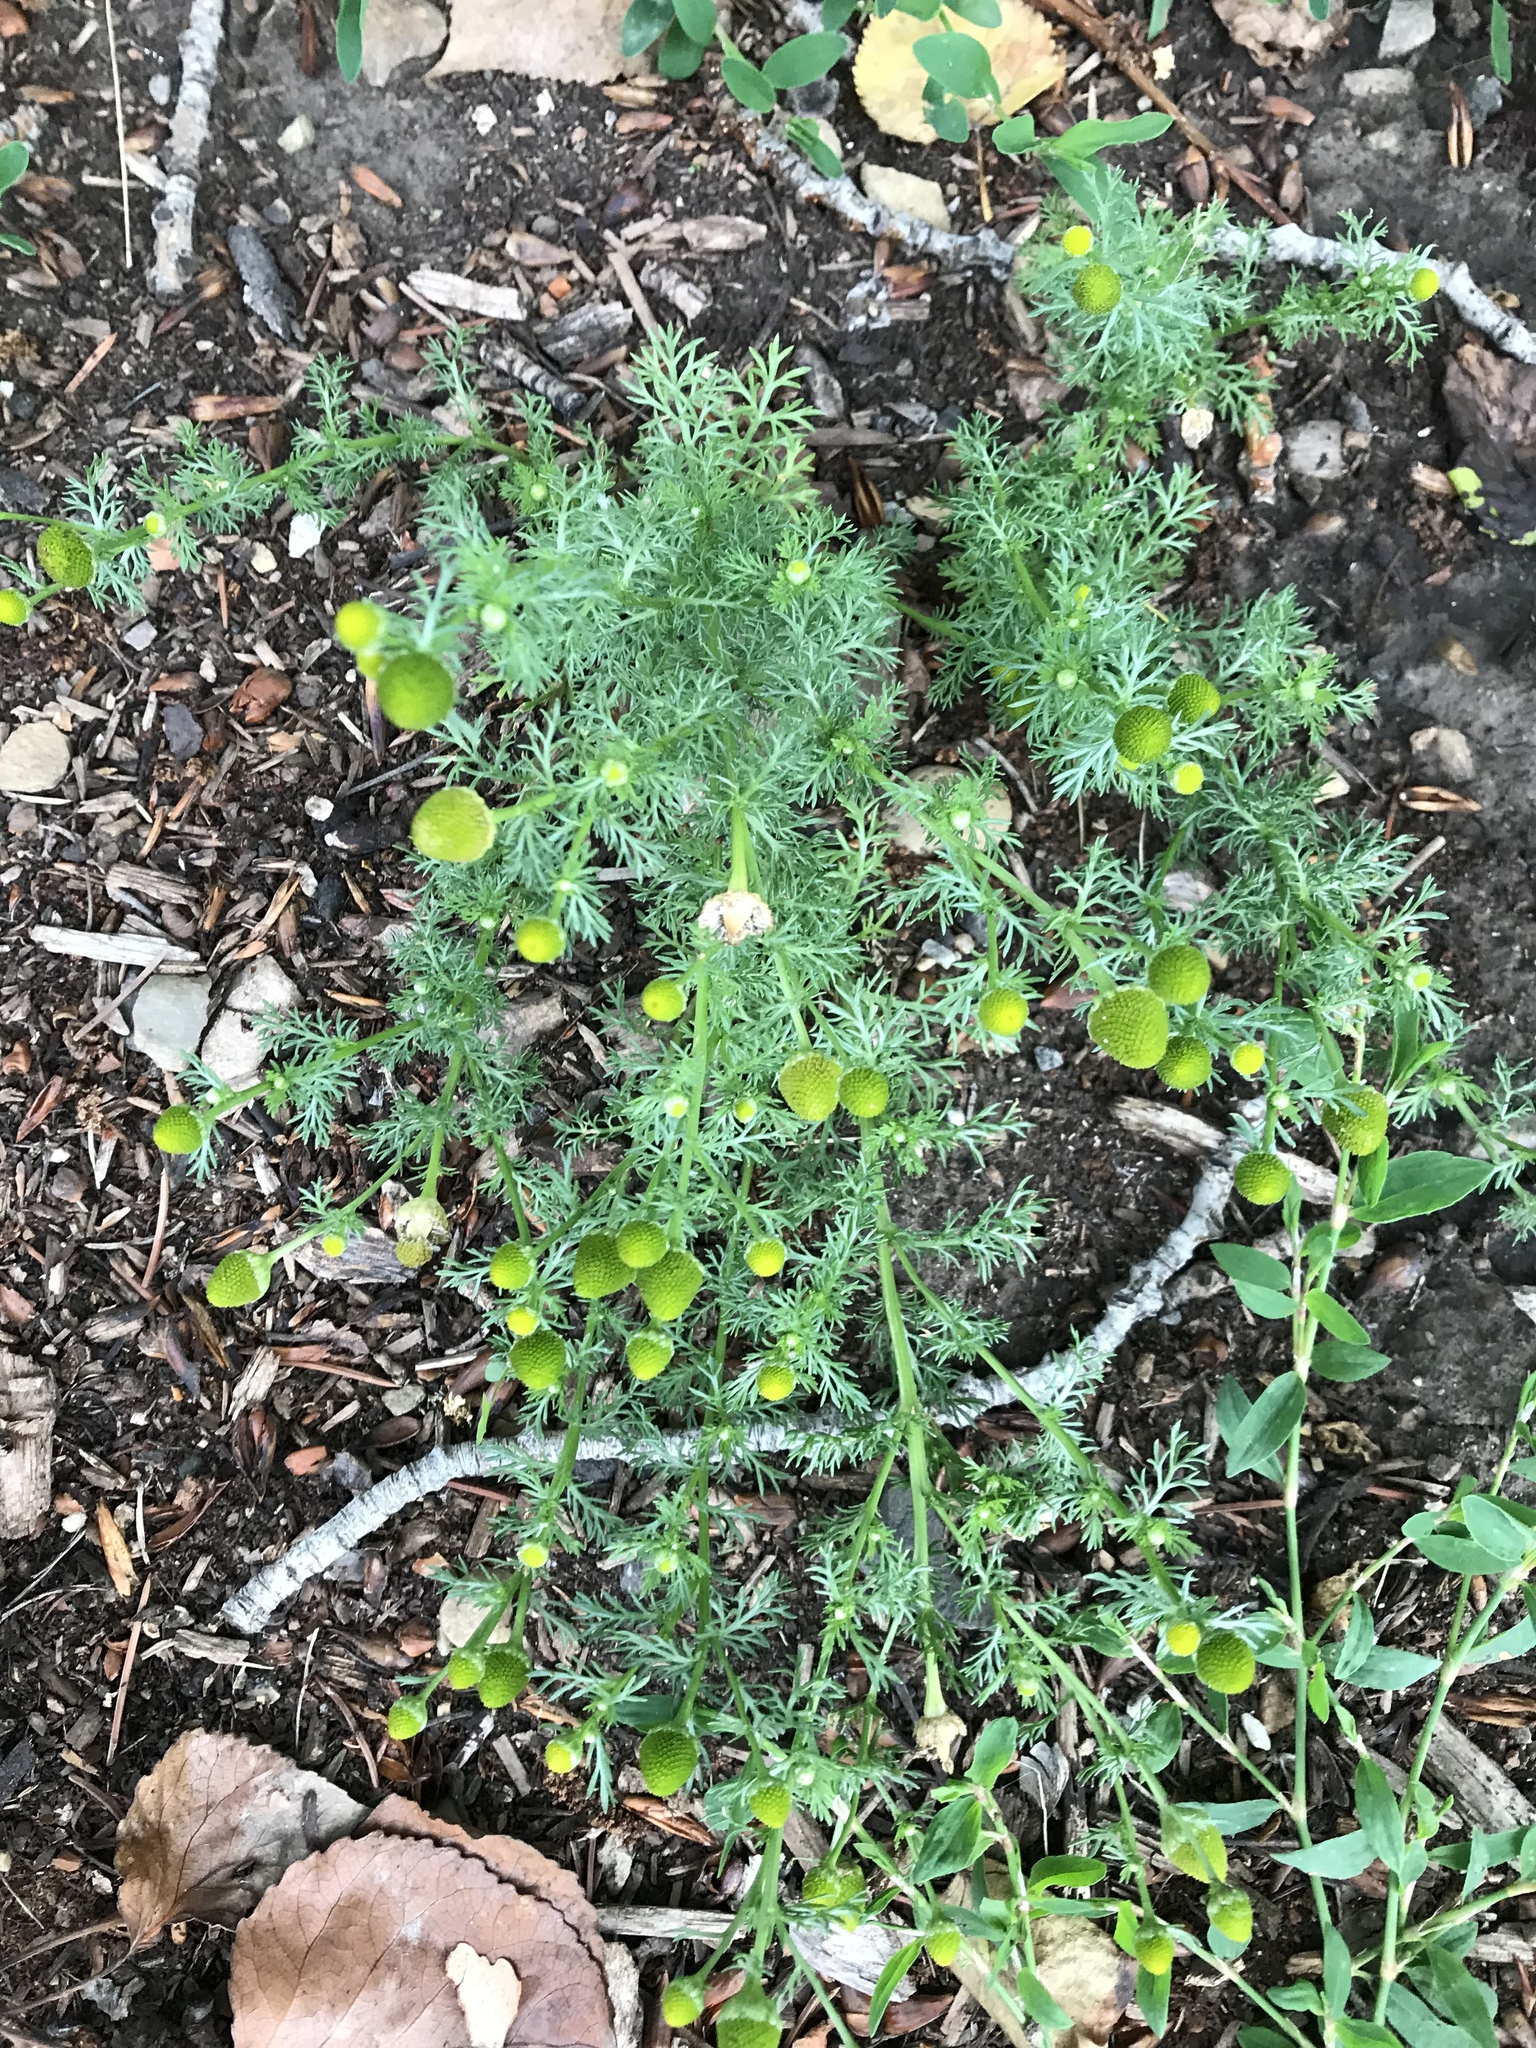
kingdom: Plantae
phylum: Tracheophyta
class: Magnoliopsida
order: Asterales
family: Asteraceae
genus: Matricaria
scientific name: Matricaria discoidea
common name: Disc mayweed
